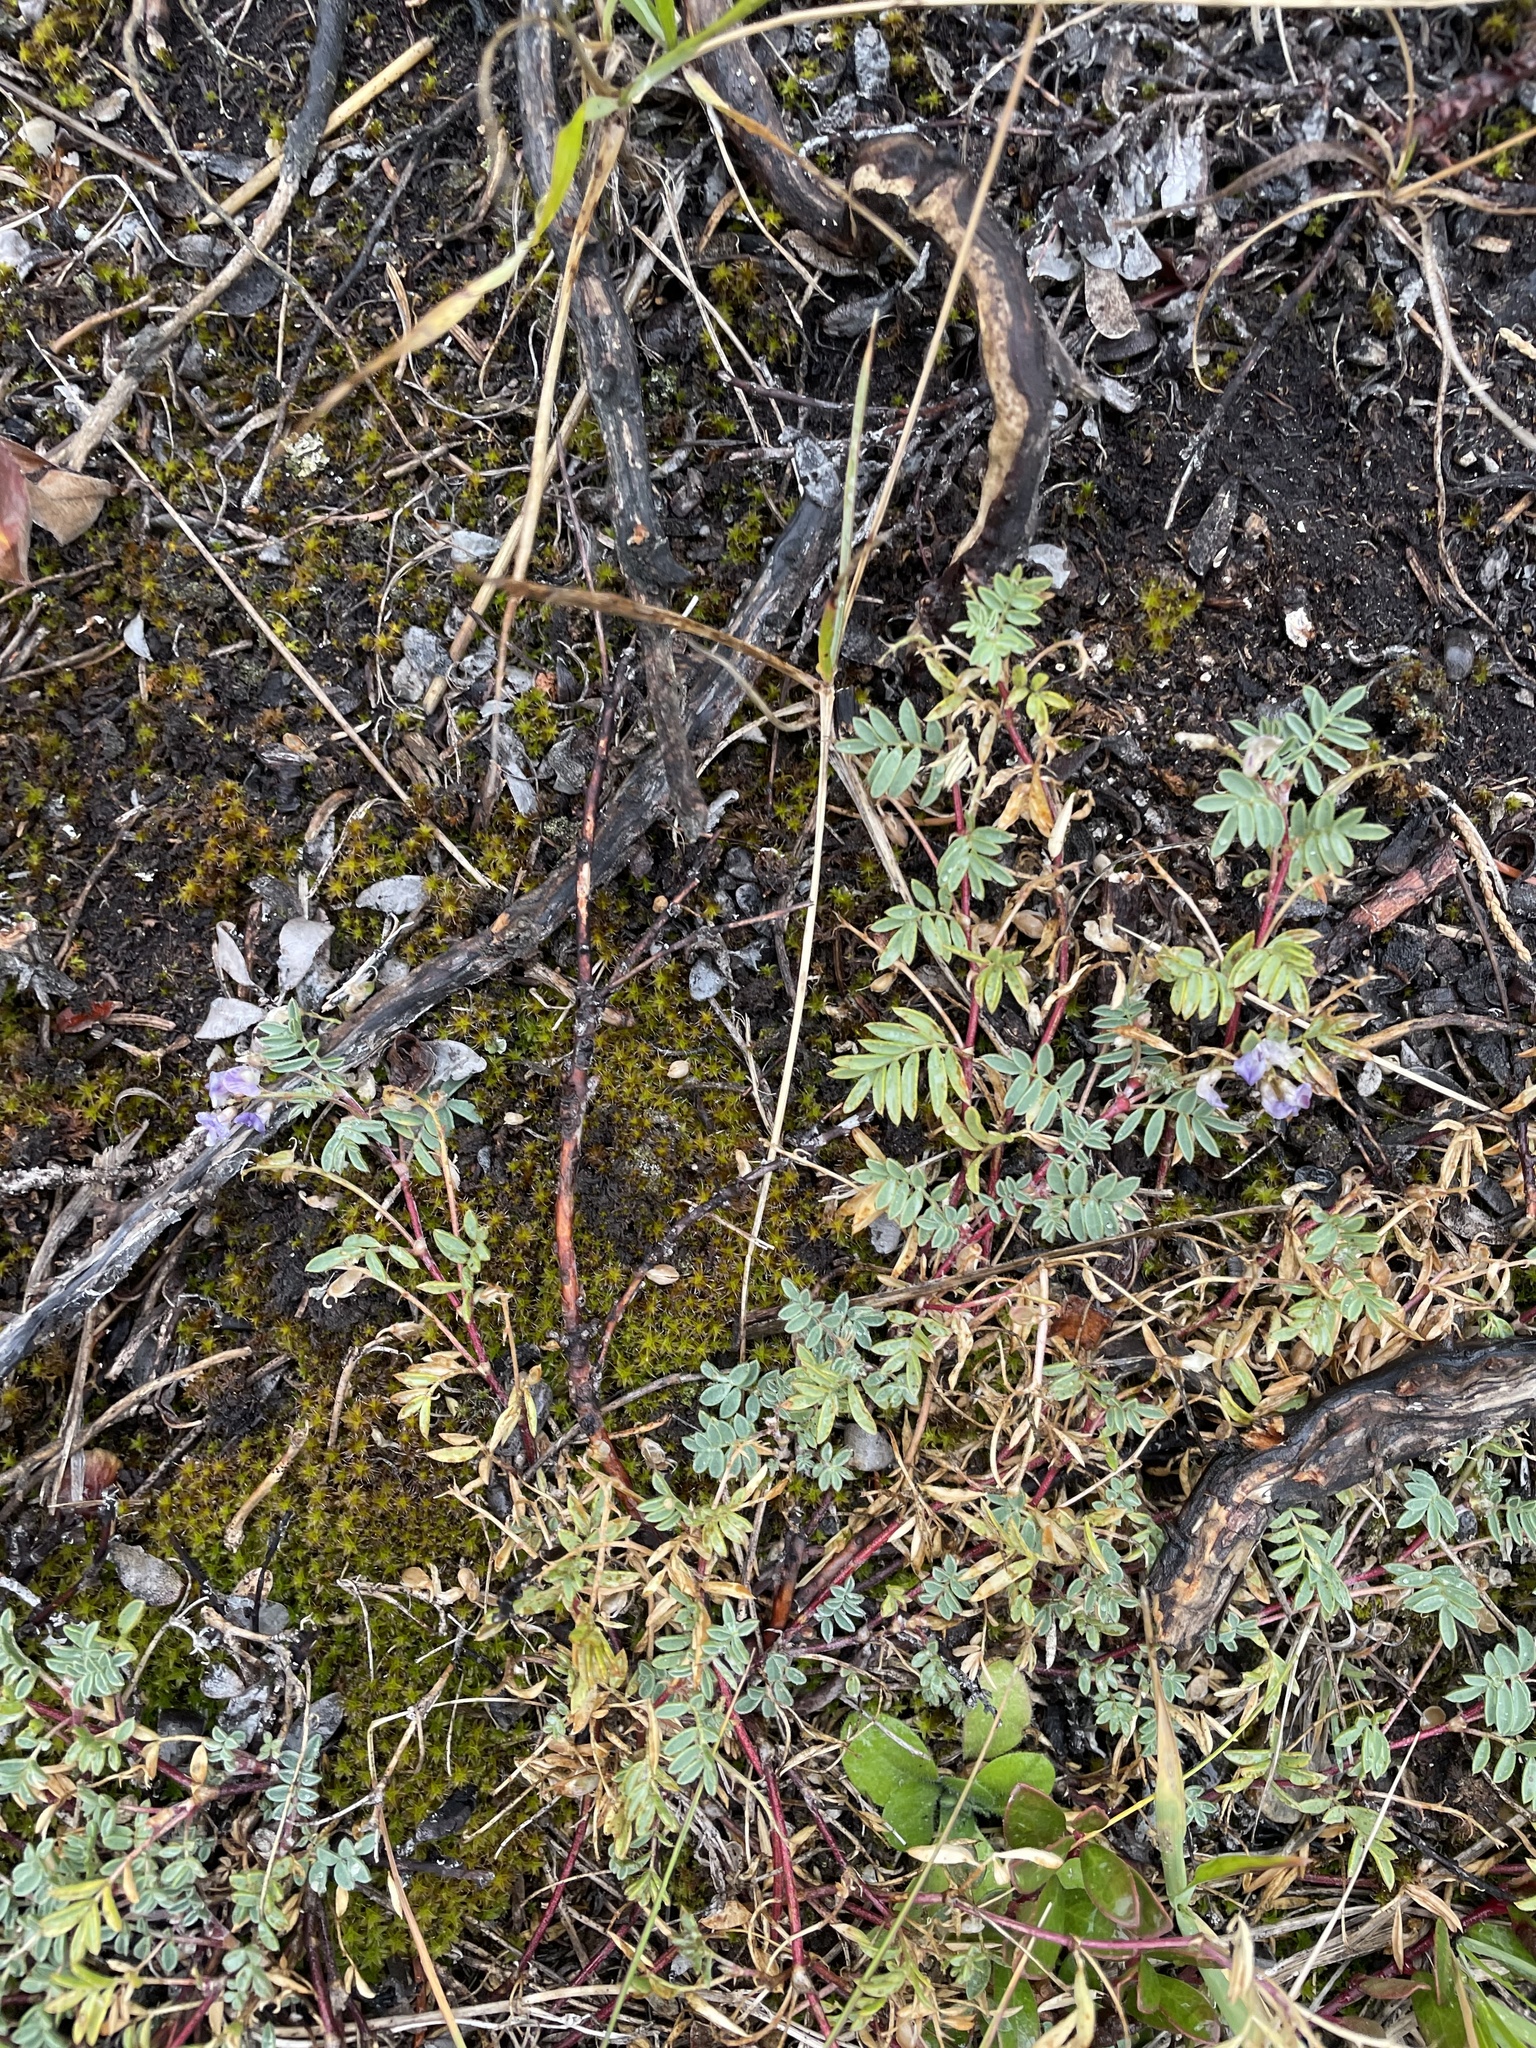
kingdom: Plantae
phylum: Tracheophyta
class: Magnoliopsida
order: Fabales
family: Fabaceae
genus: Astragalus
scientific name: Astragalus vexilliflexus
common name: Bent-flowered milk-vetch
